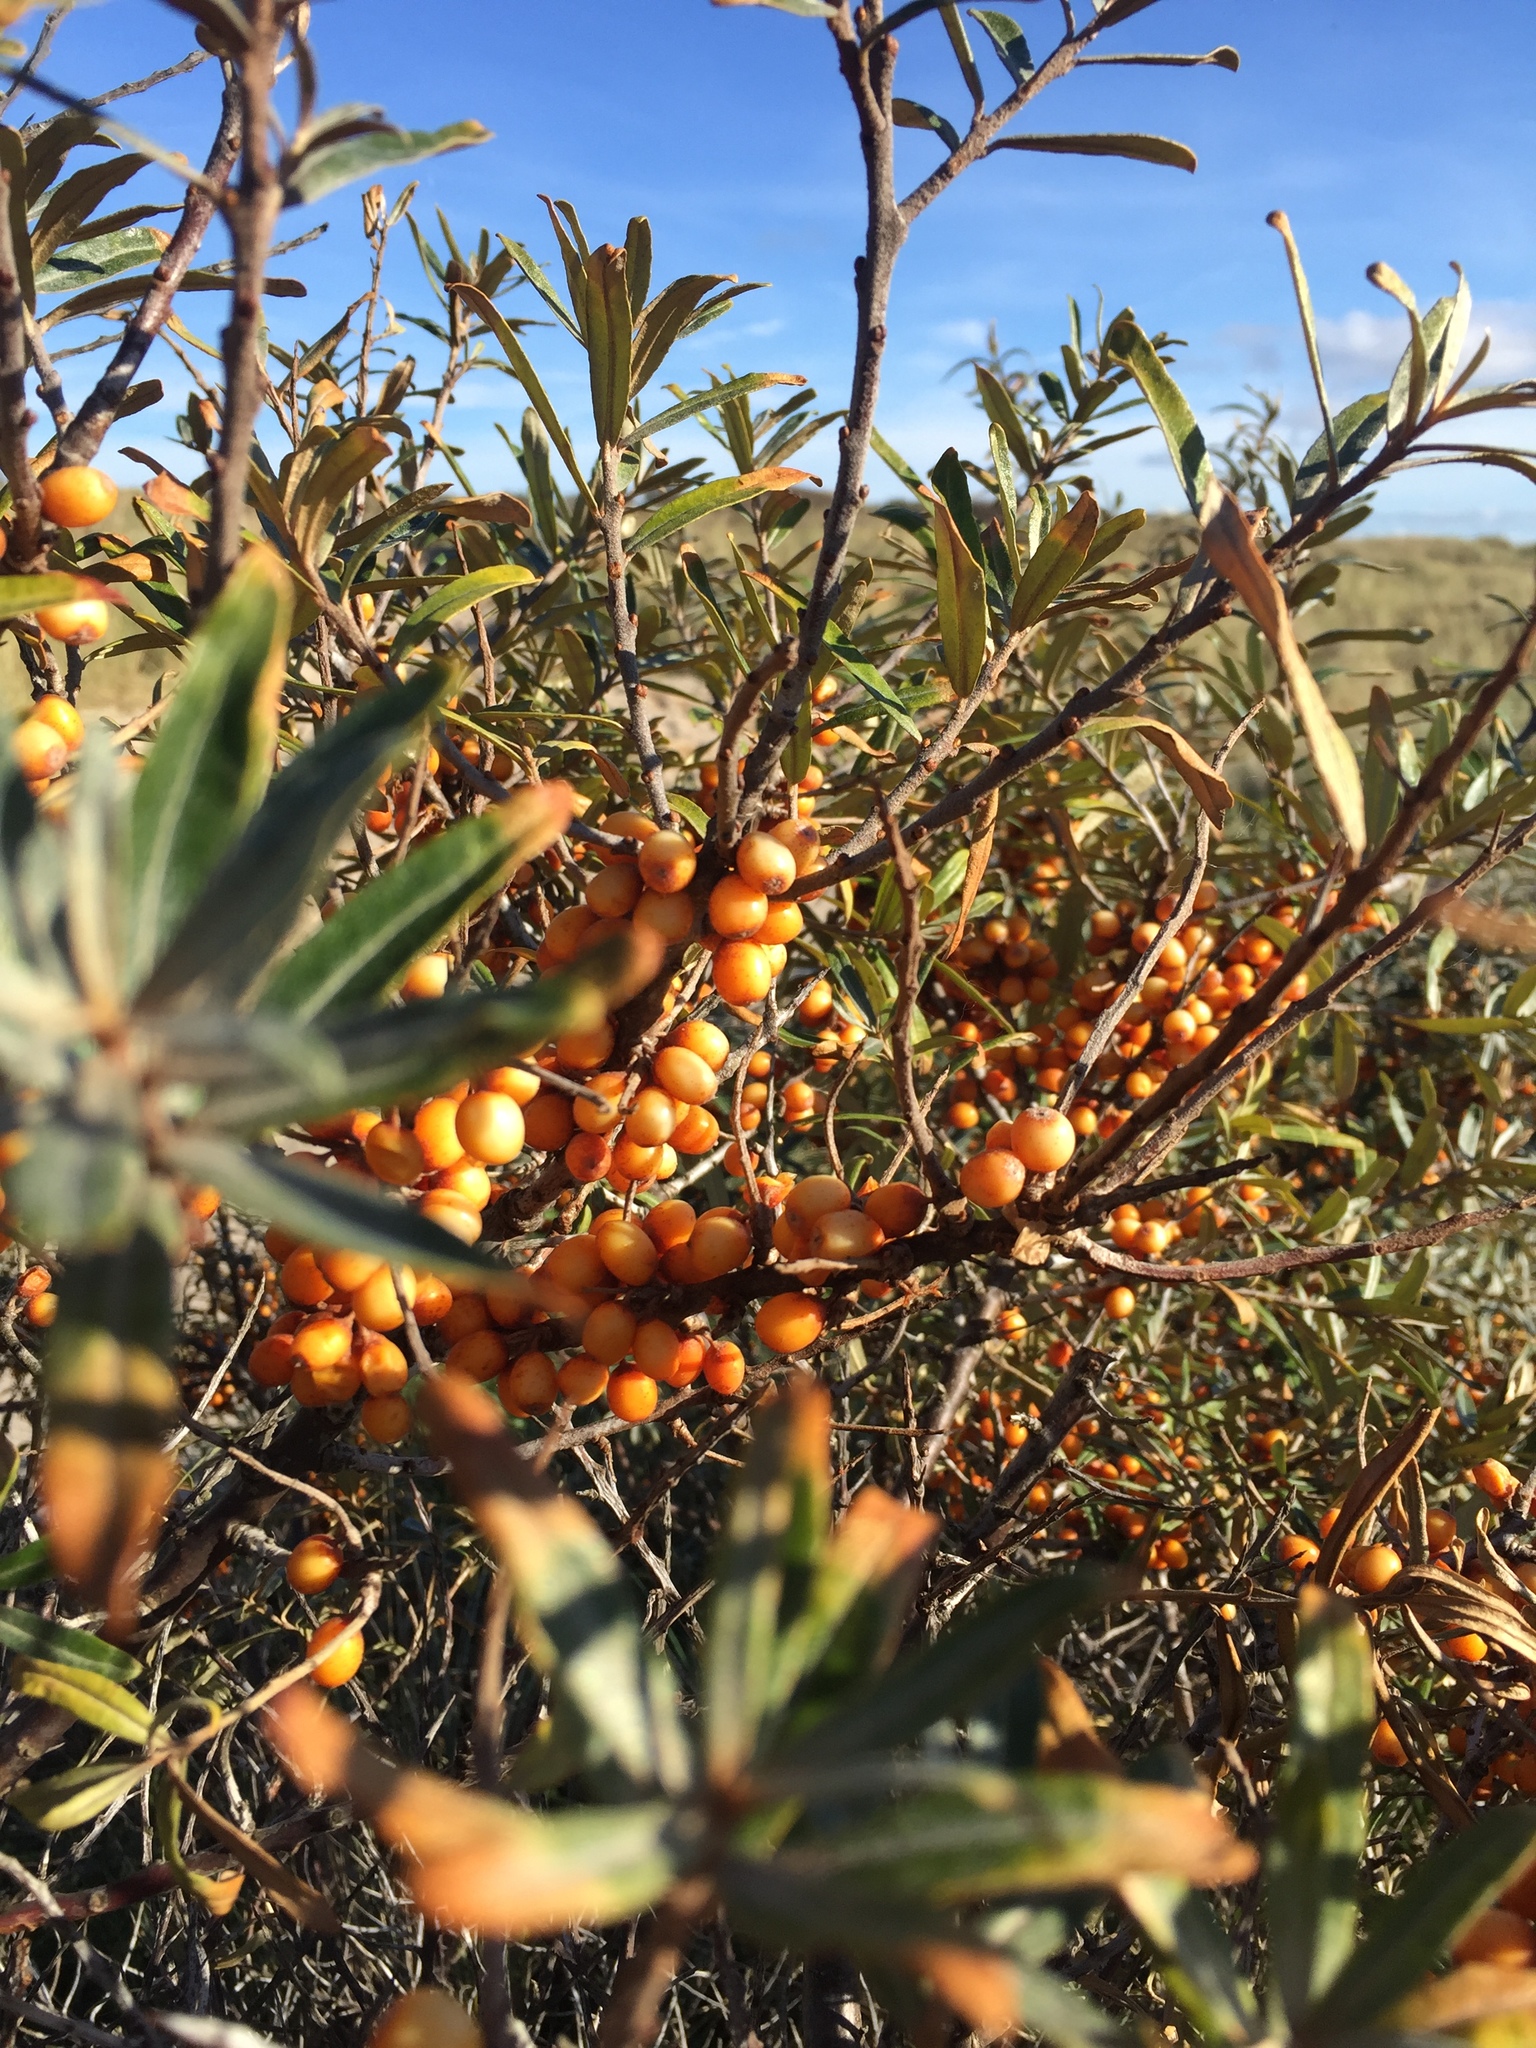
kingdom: Plantae
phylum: Tracheophyta
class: Magnoliopsida
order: Rosales
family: Elaeagnaceae
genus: Hippophae
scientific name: Hippophae rhamnoides
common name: Sea-buckthorn
